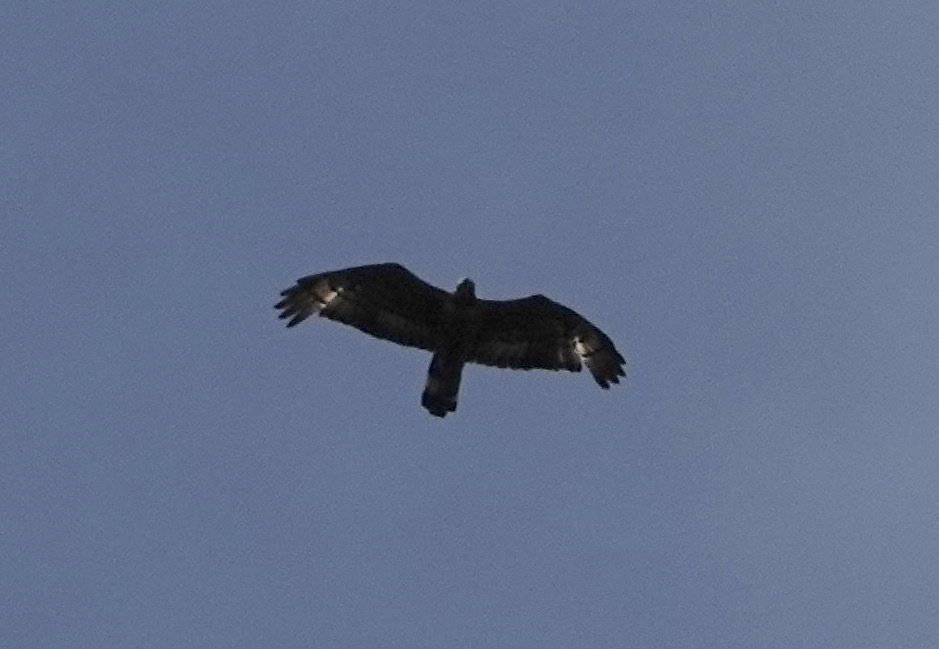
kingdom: Animalia
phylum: Chordata
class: Aves
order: Accipitriformes
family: Accipitridae
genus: Pernis
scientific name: Pernis ptilorhynchus
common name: Crested honey buzzard
